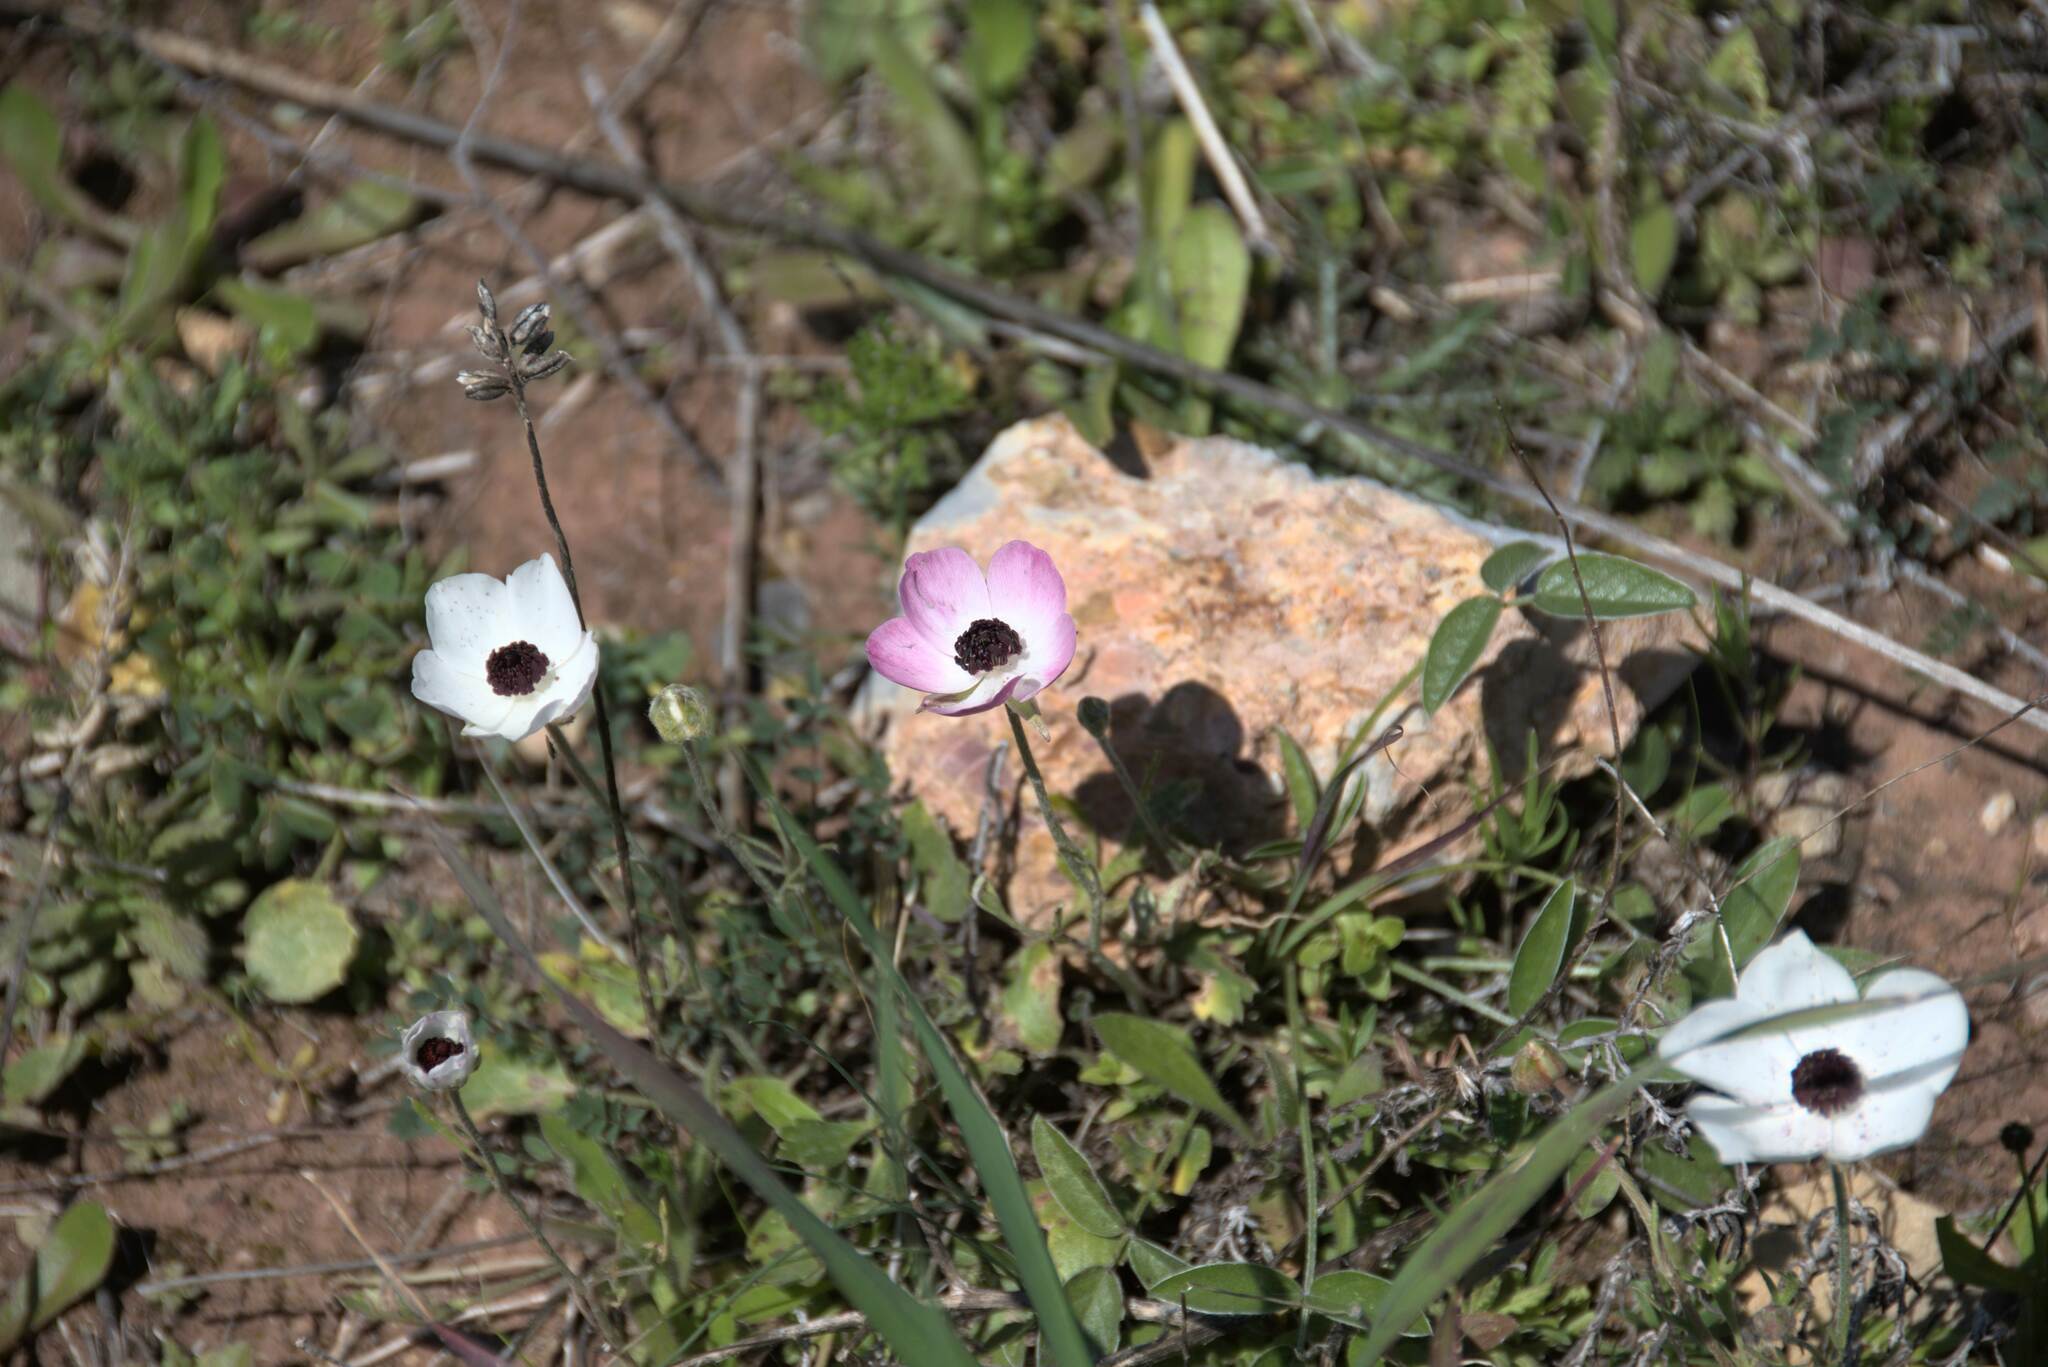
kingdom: Plantae
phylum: Tracheophyta
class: Magnoliopsida
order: Ranunculales
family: Ranunculaceae
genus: Ranunculus
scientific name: Ranunculus asiaticus
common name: Persian buttercup
